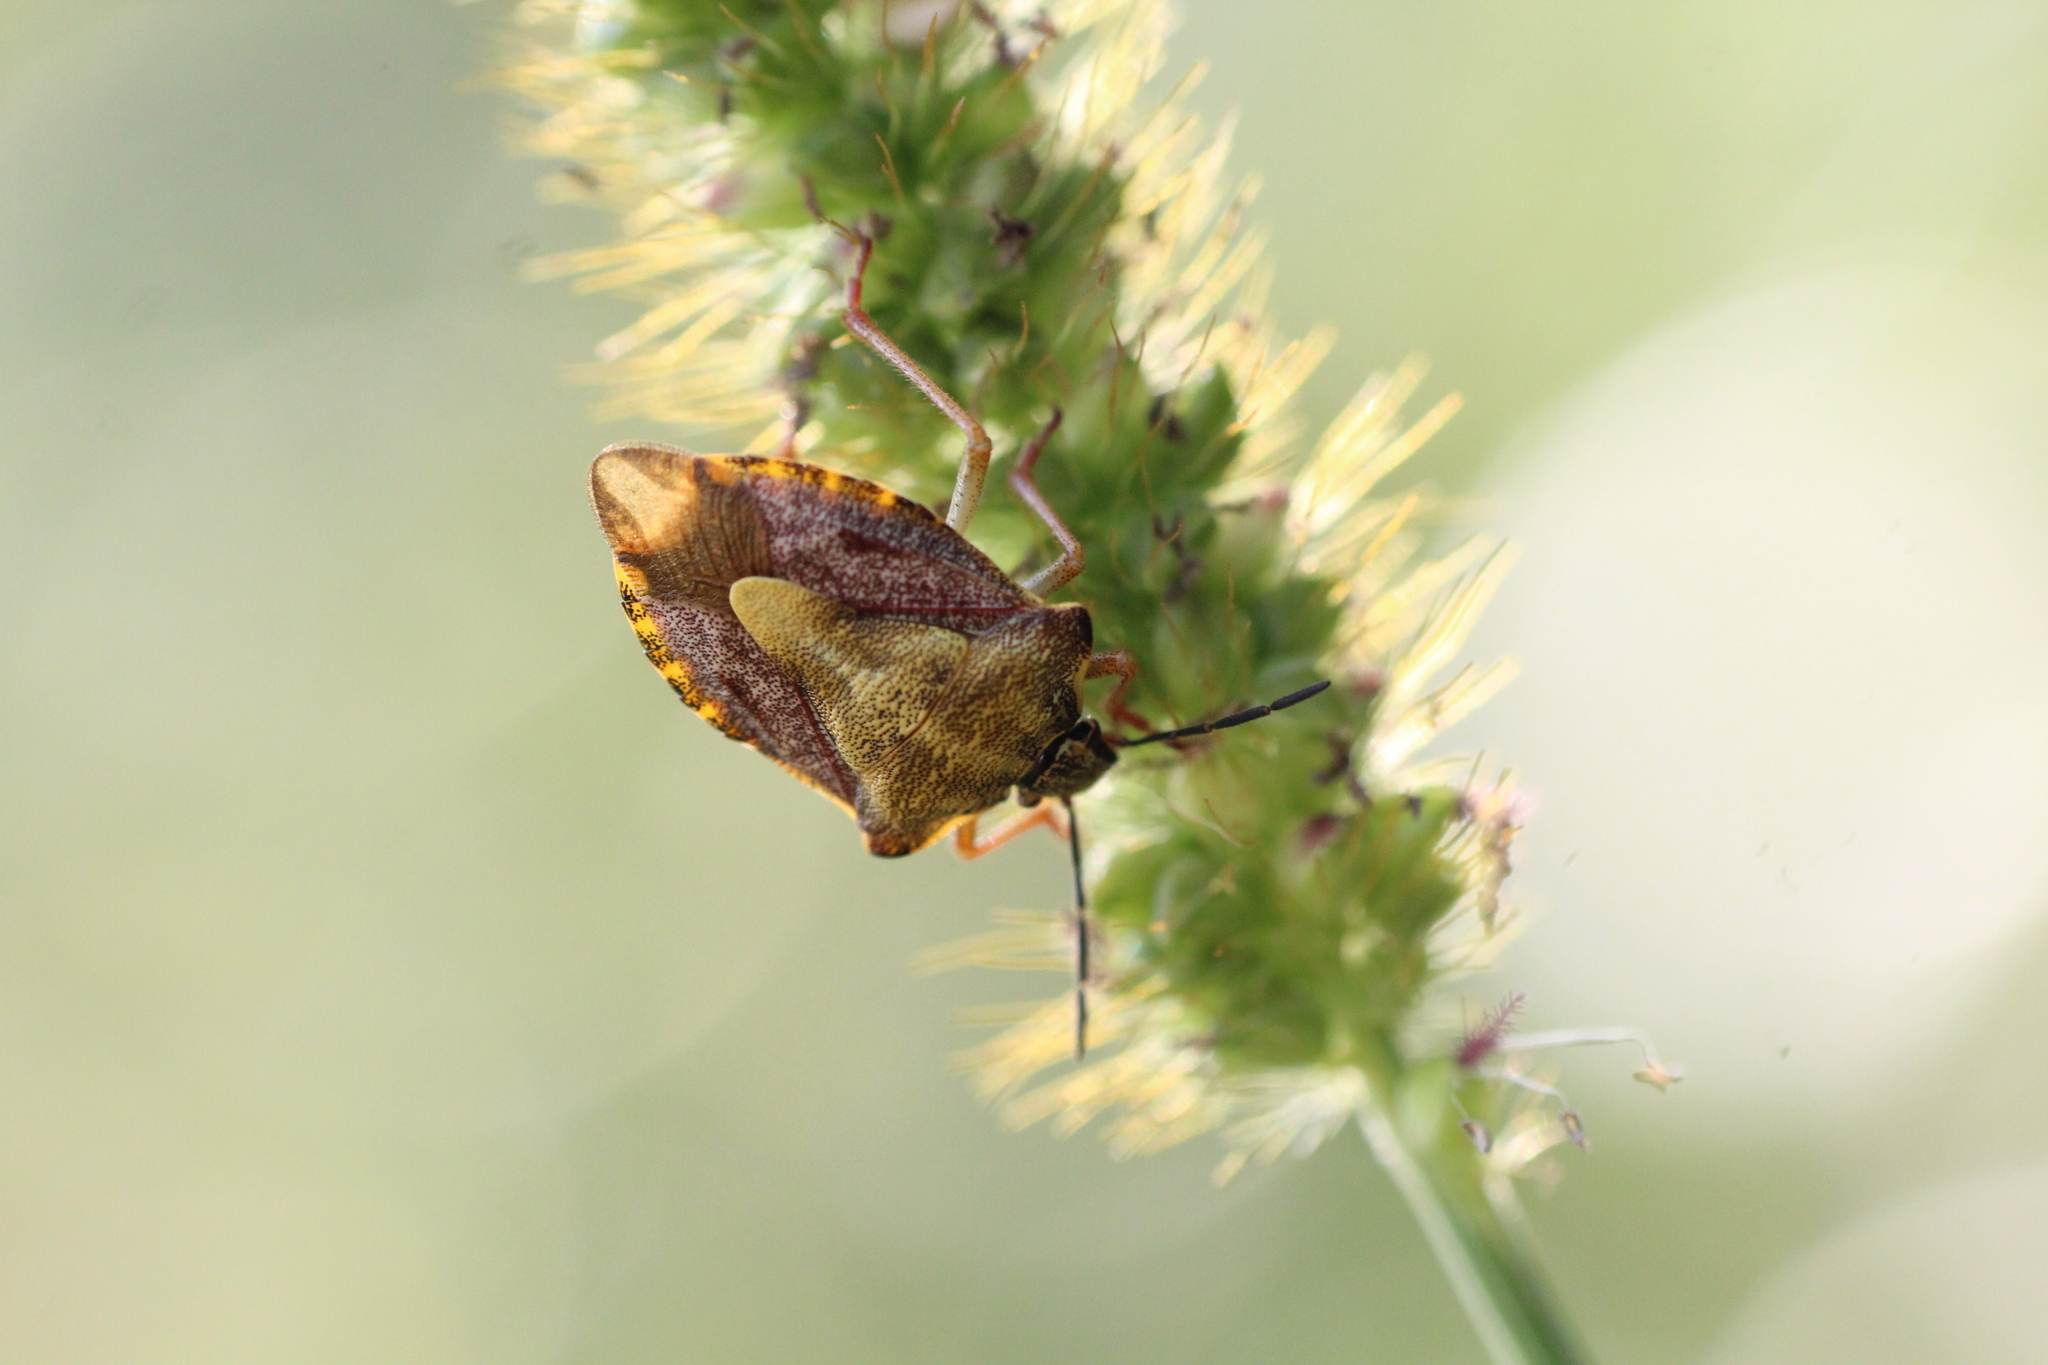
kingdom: Animalia
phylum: Arthropoda
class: Insecta
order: Hemiptera
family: Pentatomidae
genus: Carpocoris
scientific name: Carpocoris purpureipennis
